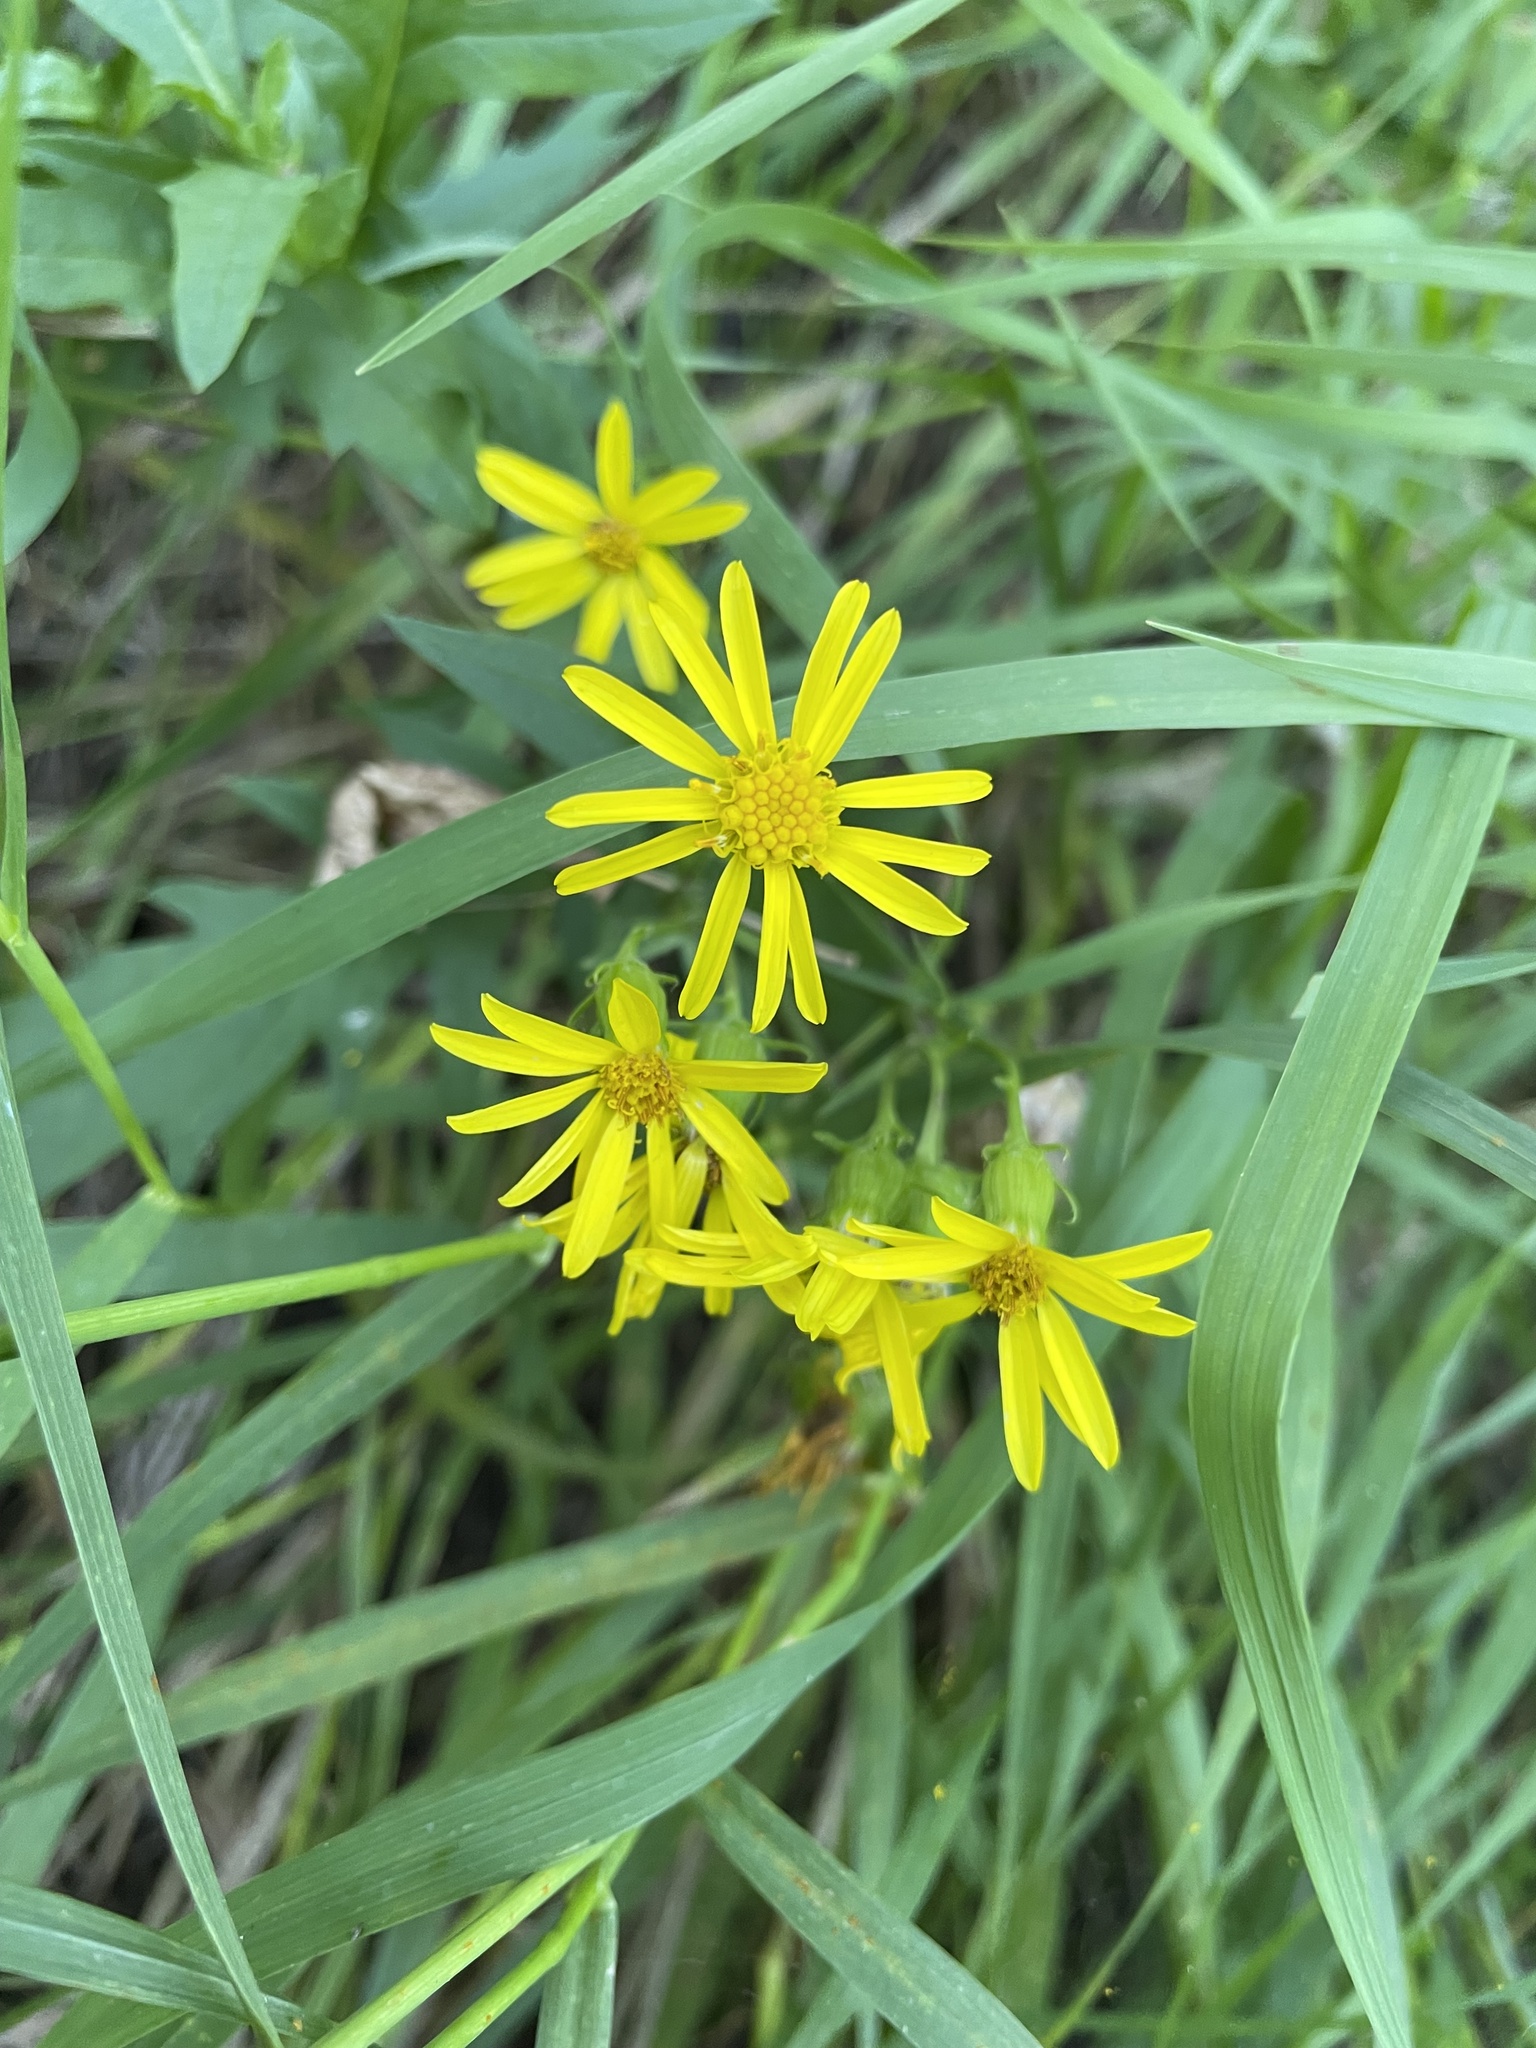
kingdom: Plantae
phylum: Tracheophyta
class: Magnoliopsida
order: Asterales
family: Asteraceae
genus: Senecio
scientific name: Senecio eremophilus
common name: Desert ragwort
